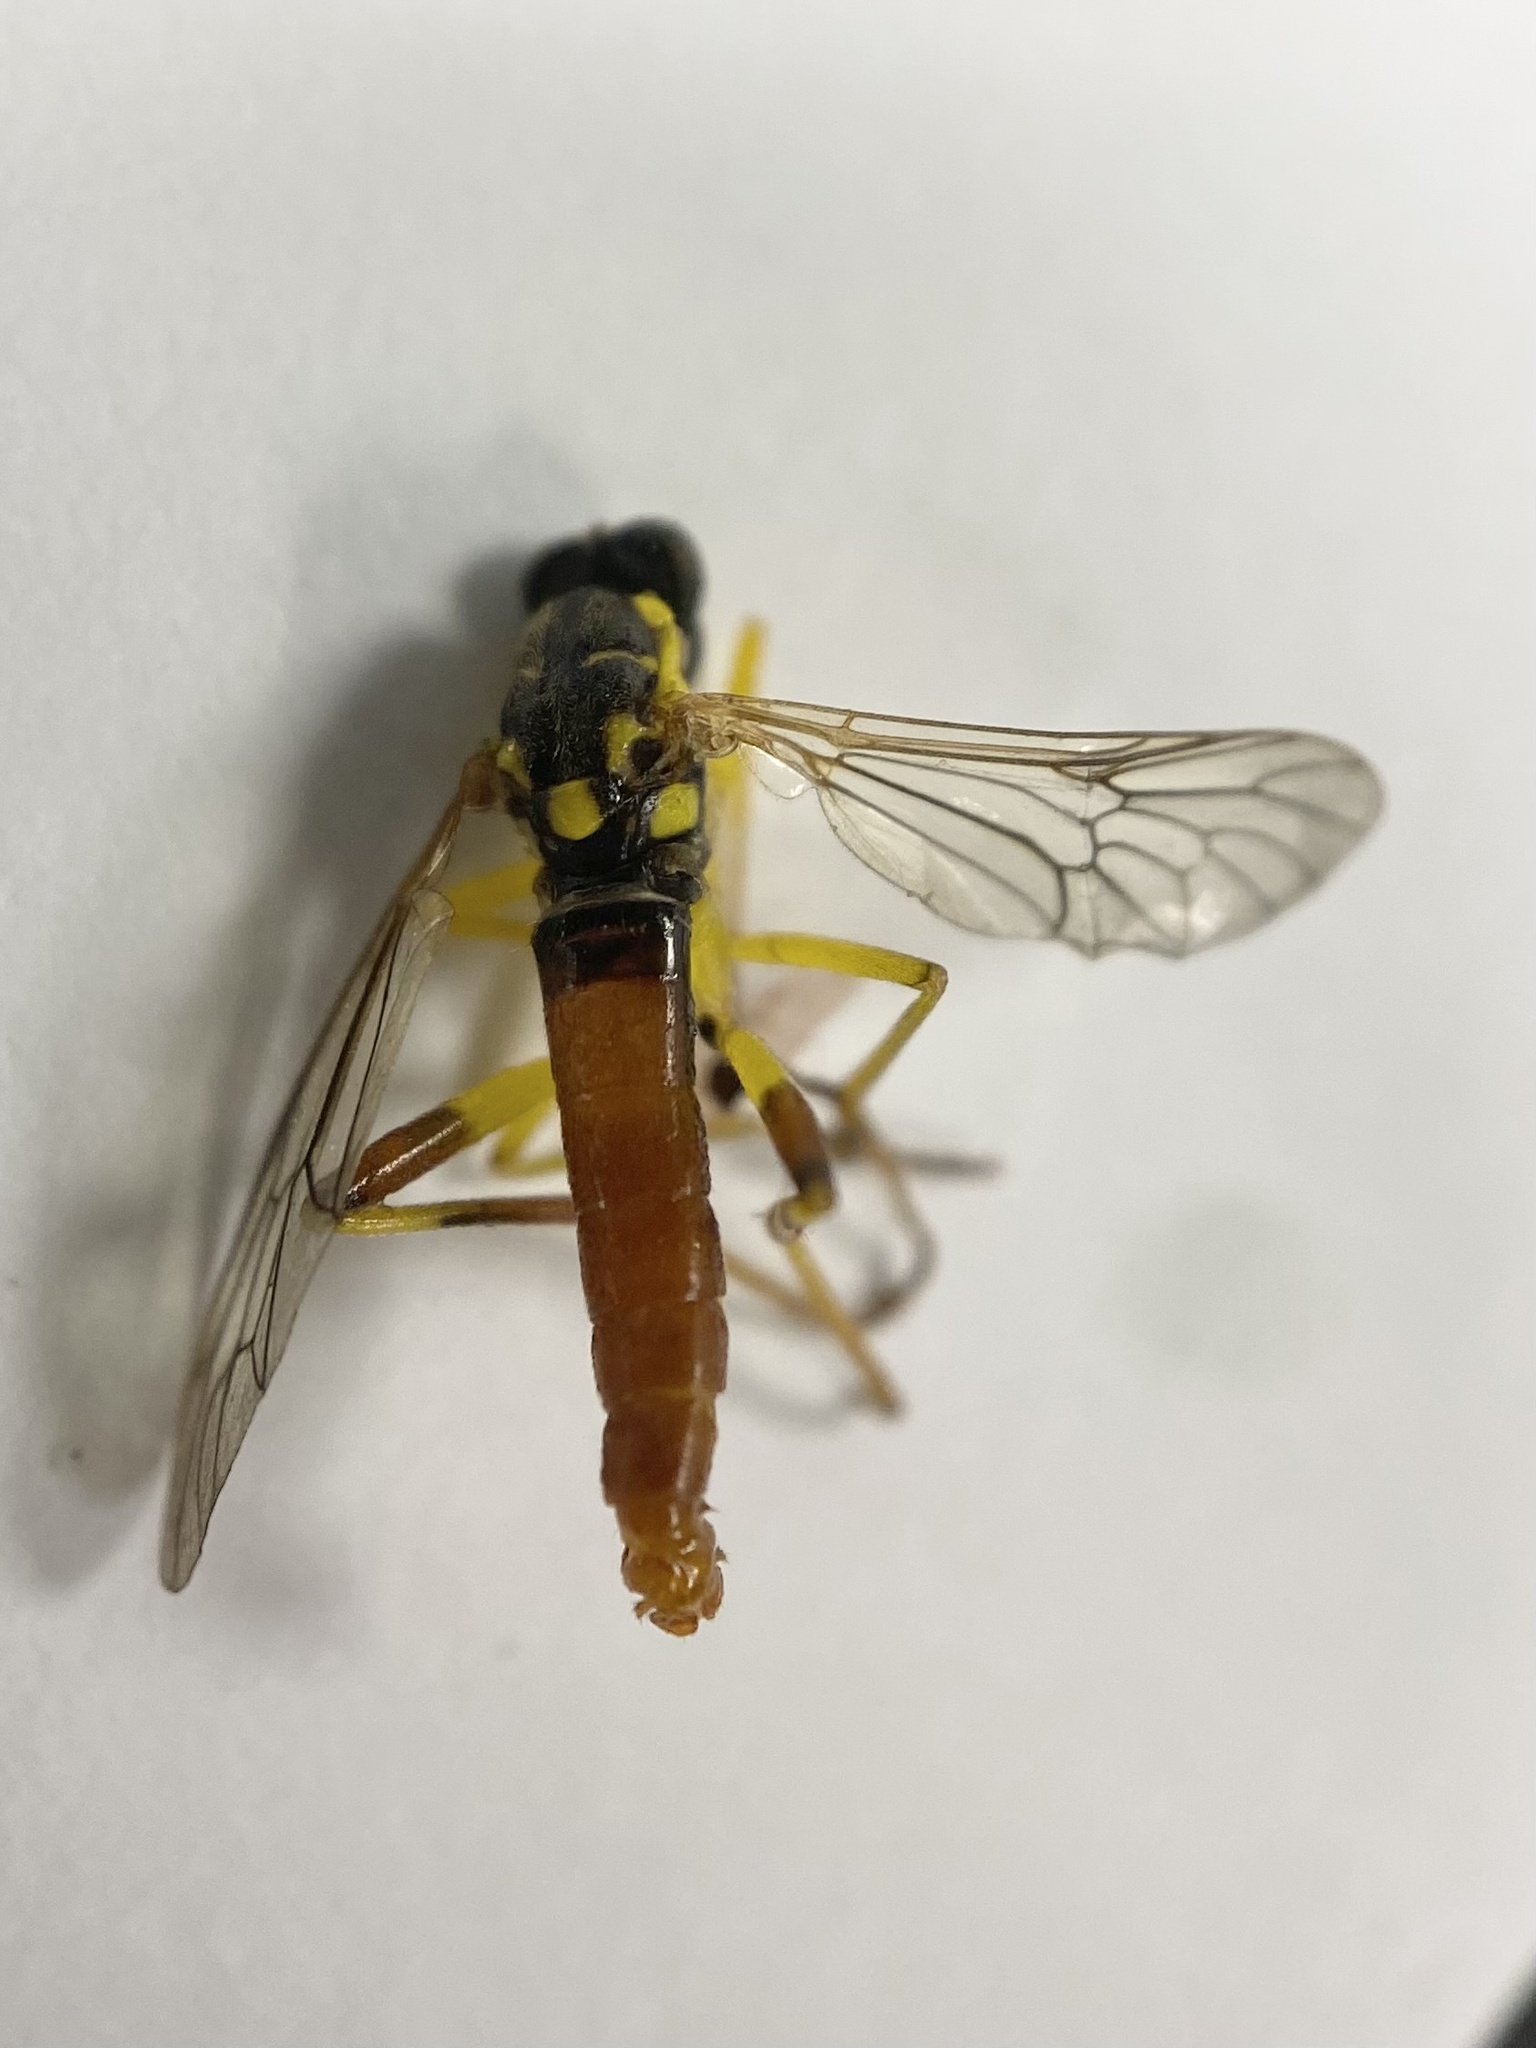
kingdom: Animalia
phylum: Arthropoda
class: Insecta
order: Diptera
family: Xylomyidae
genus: Xylomya
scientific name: Xylomya simillima
